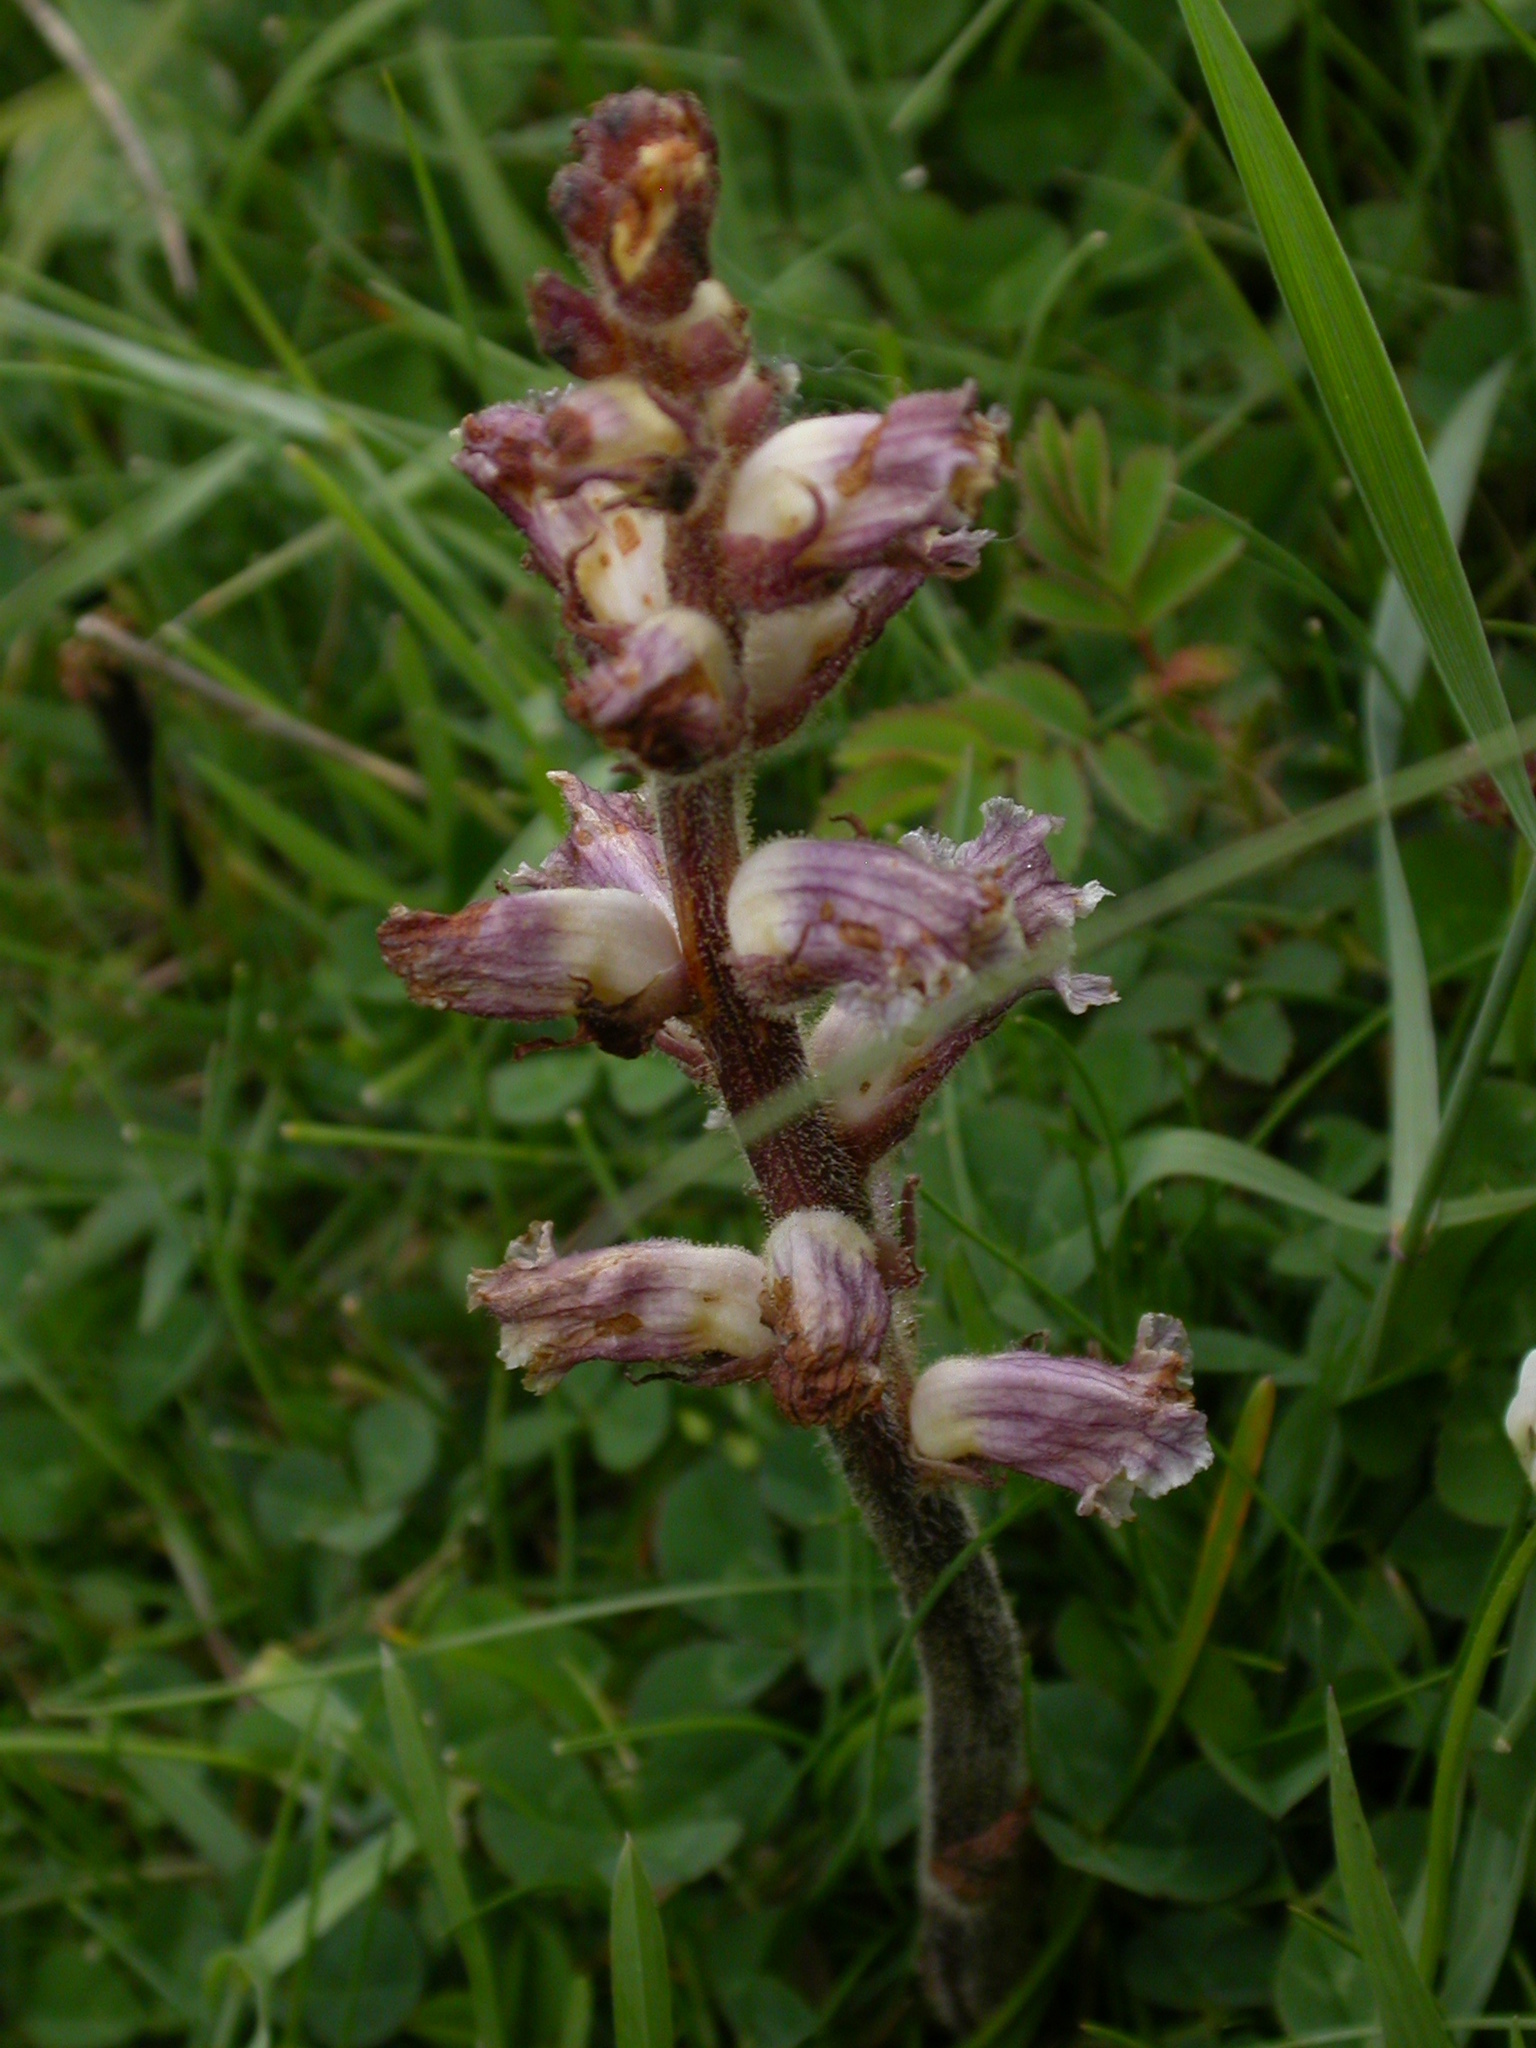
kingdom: Plantae
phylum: Tracheophyta
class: Magnoliopsida
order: Lamiales
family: Orobanchaceae
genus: Orobanche
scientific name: Orobanche minor
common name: Common broomrape
